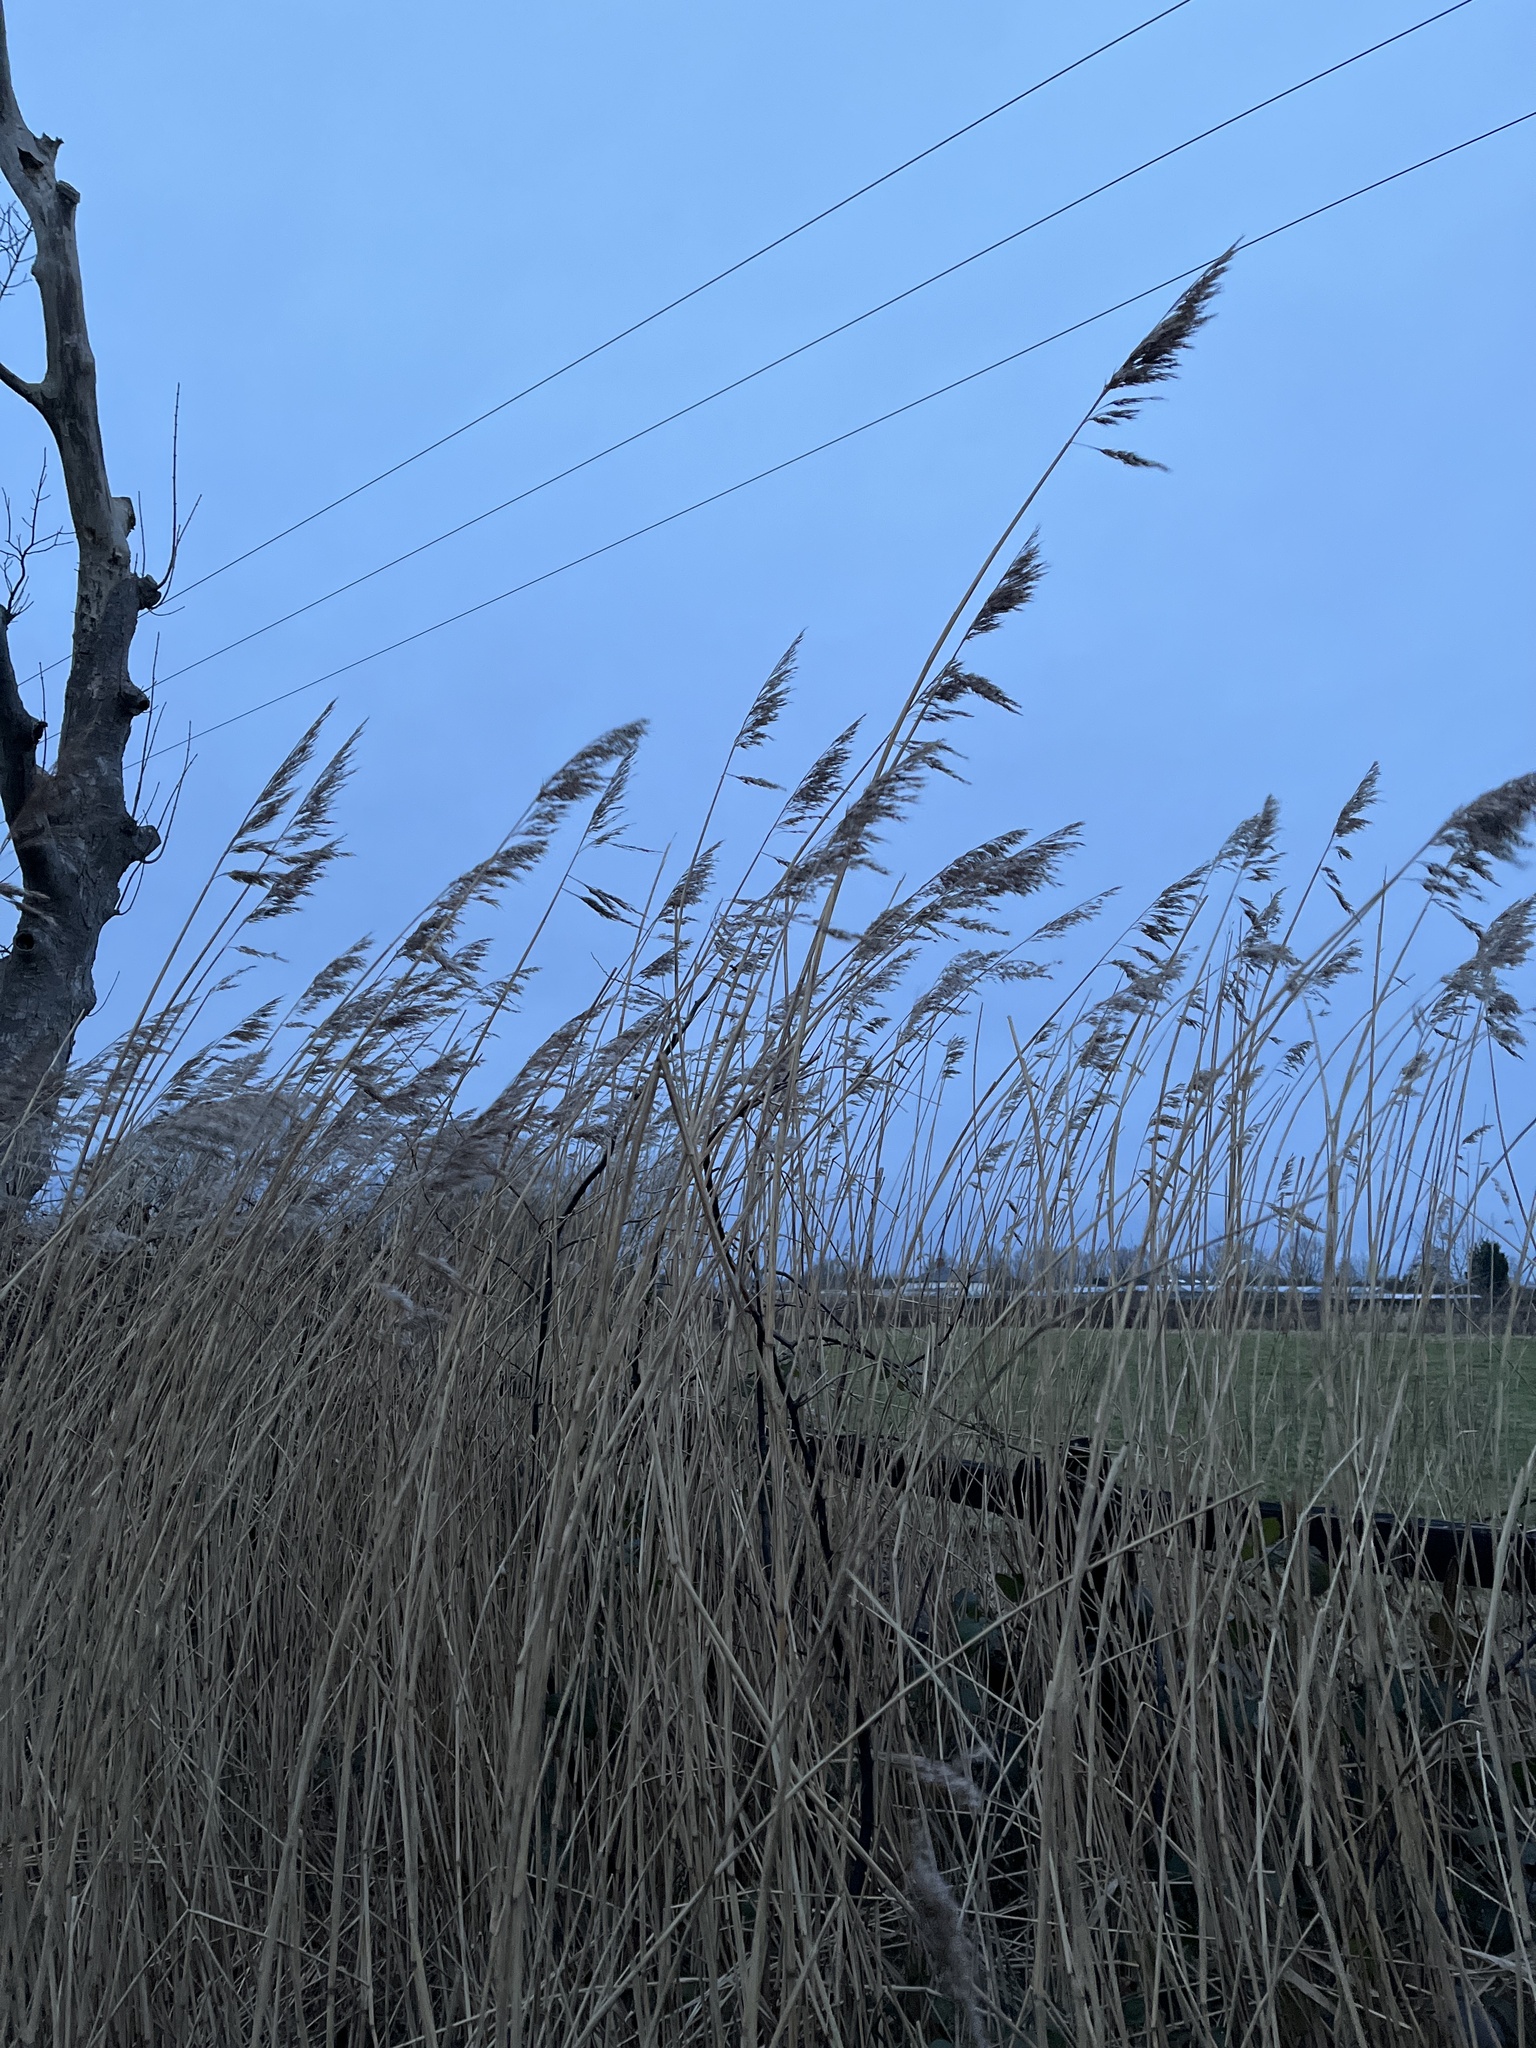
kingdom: Plantae
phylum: Tracheophyta
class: Liliopsida
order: Poales
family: Poaceae
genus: Phragmites
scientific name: Phragmites australis
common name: Common reed
